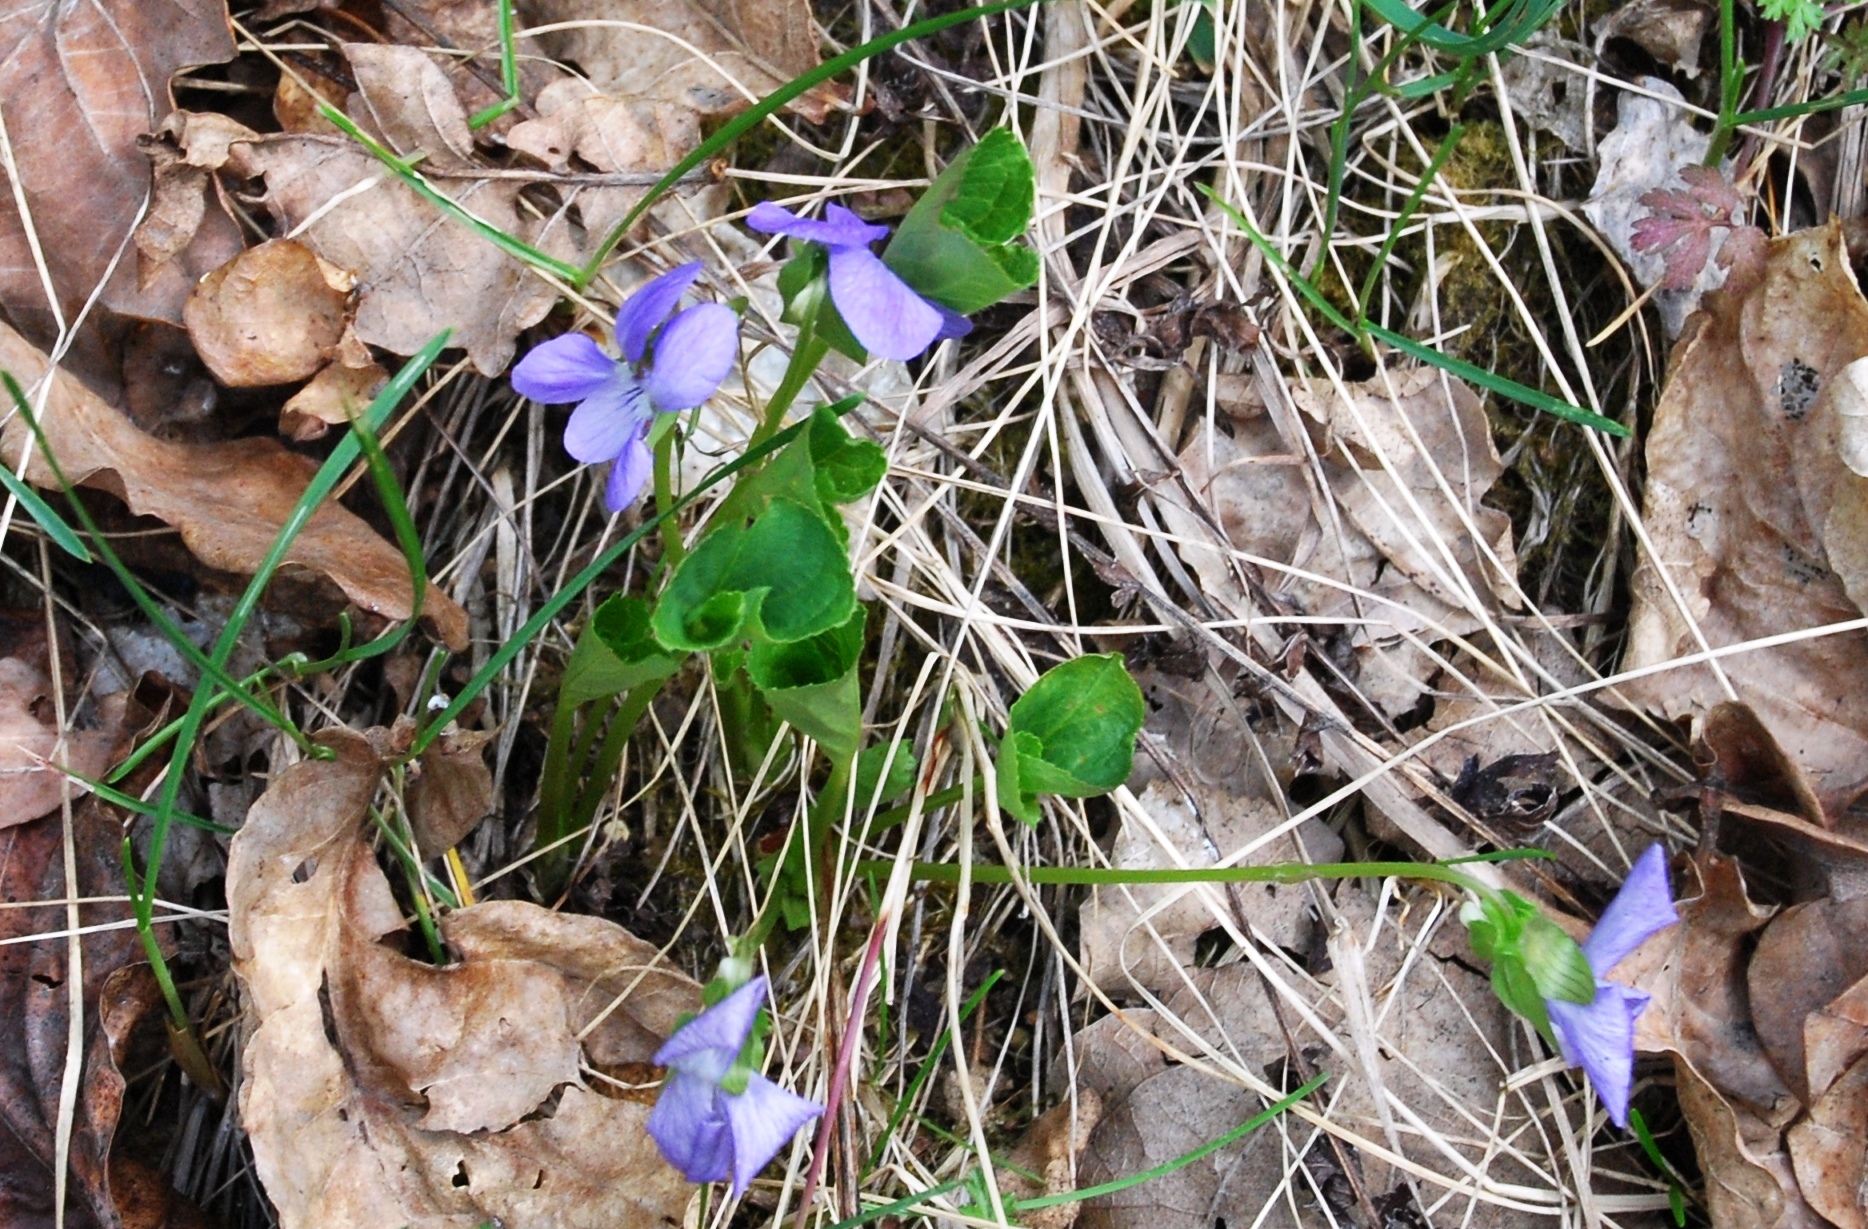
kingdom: Plantae
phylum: Tracheophyta
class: Magnoliopsida
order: Malpighiales
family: Violaceae
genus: Viola
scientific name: Viola riviniana
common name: Common dog-violet
